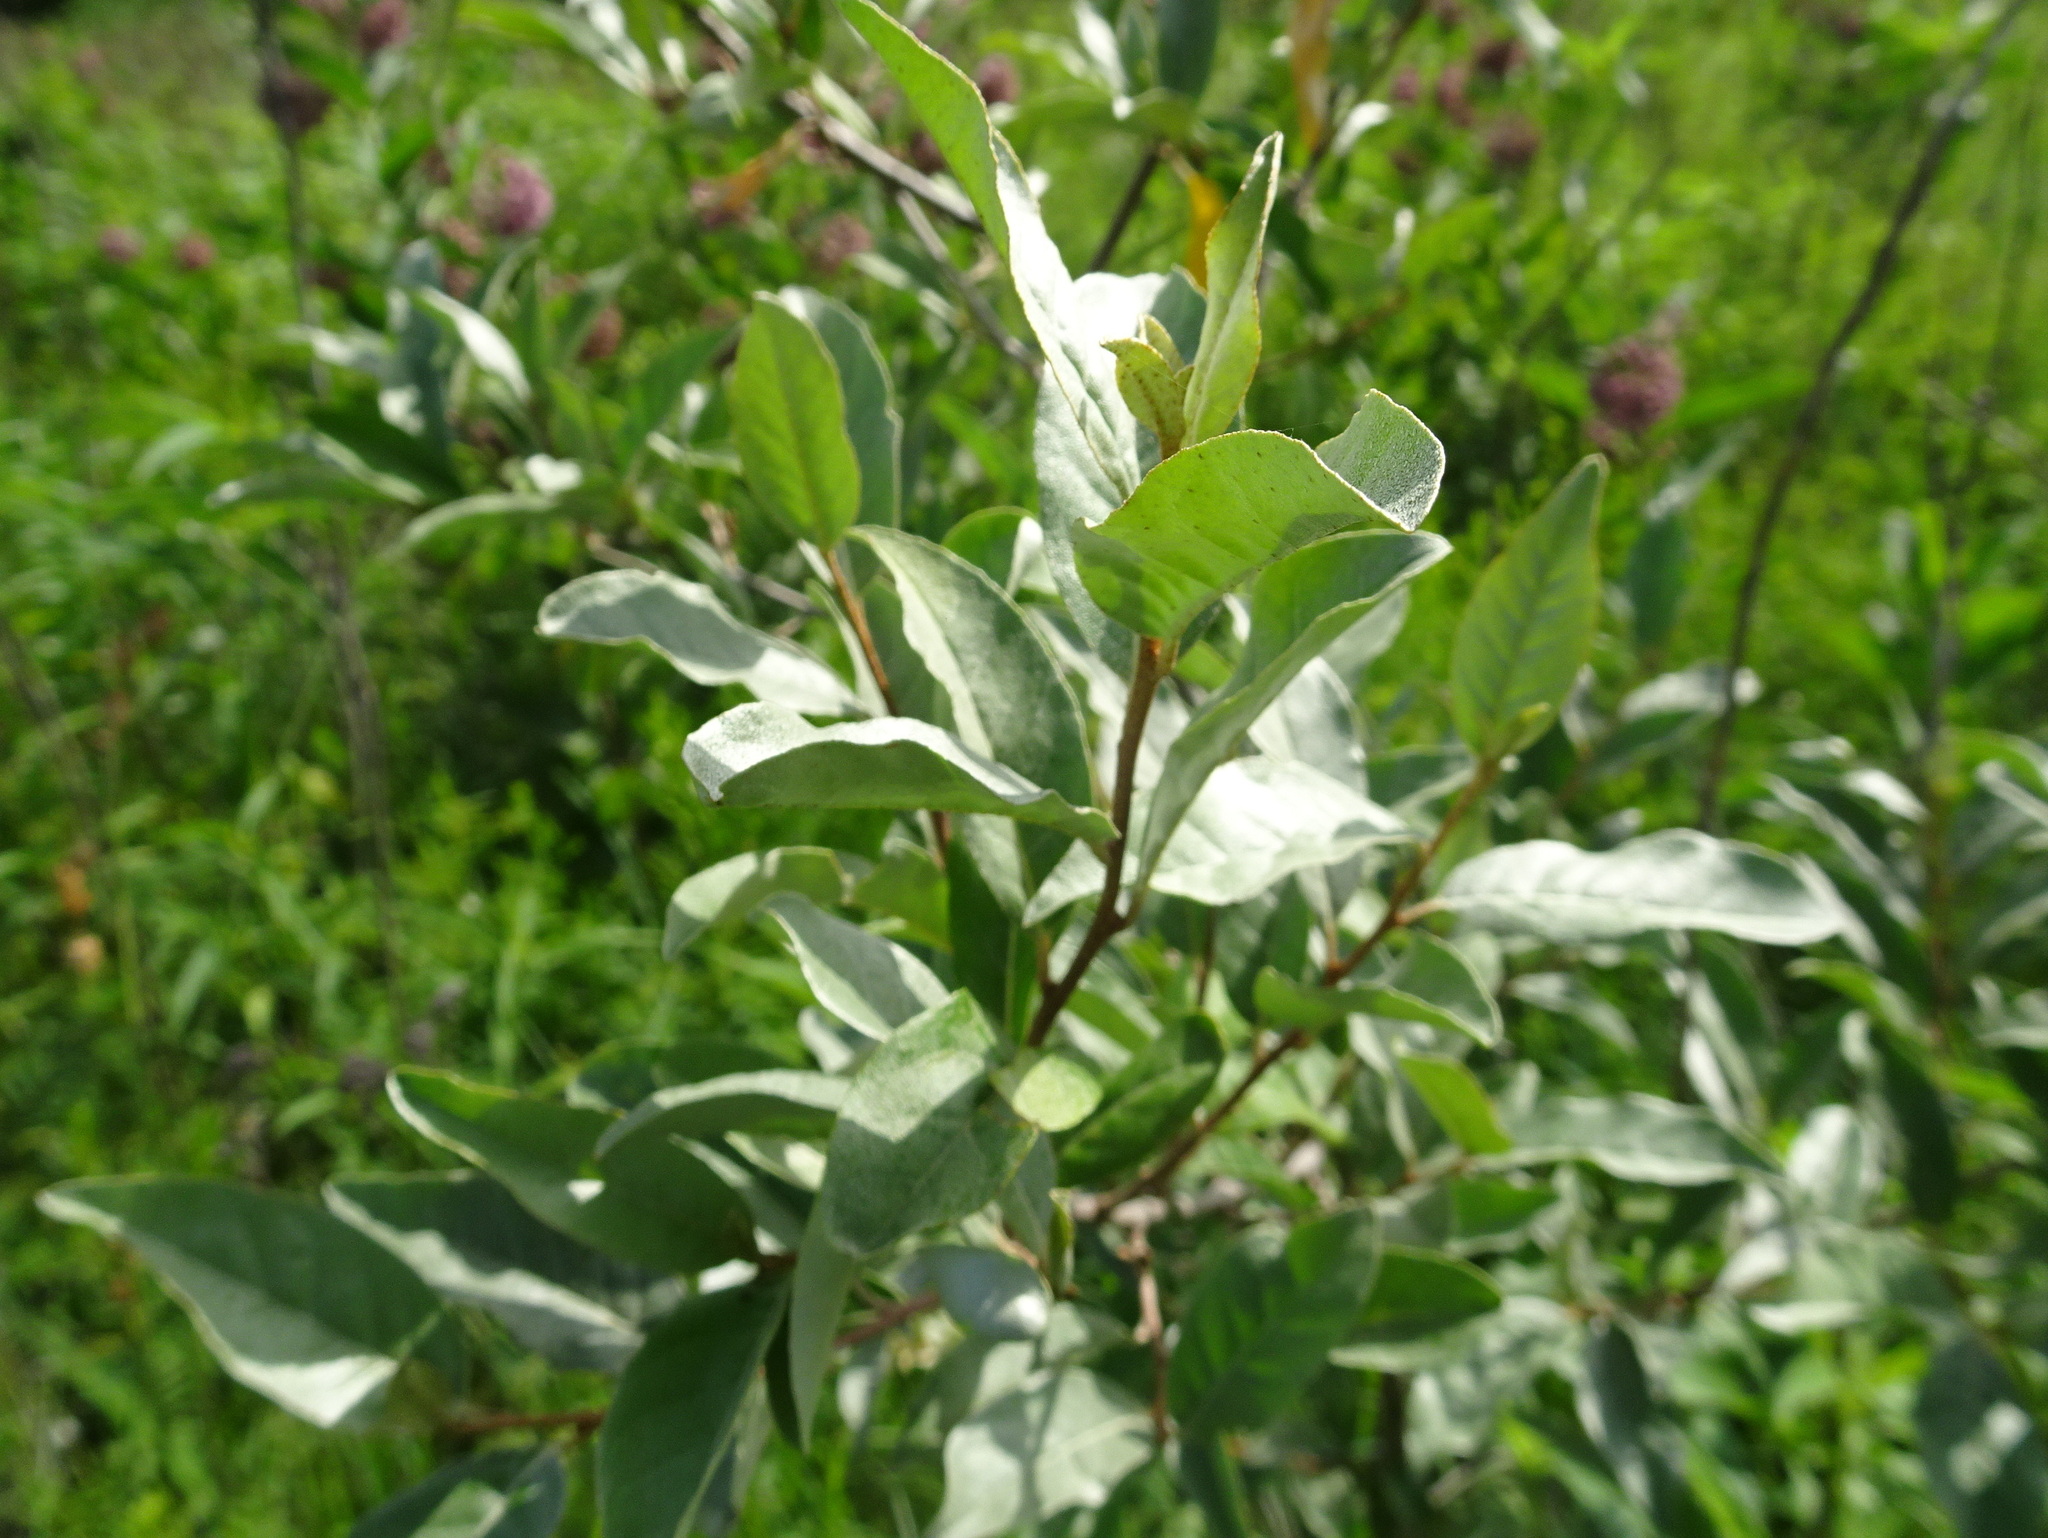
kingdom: Plantae
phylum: Tracheophyta
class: Magnoliopsida
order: Rosales
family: Elaeagnaceae
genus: Elaeagnus
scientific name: Elaeagnus umbellata
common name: Autumn olive
